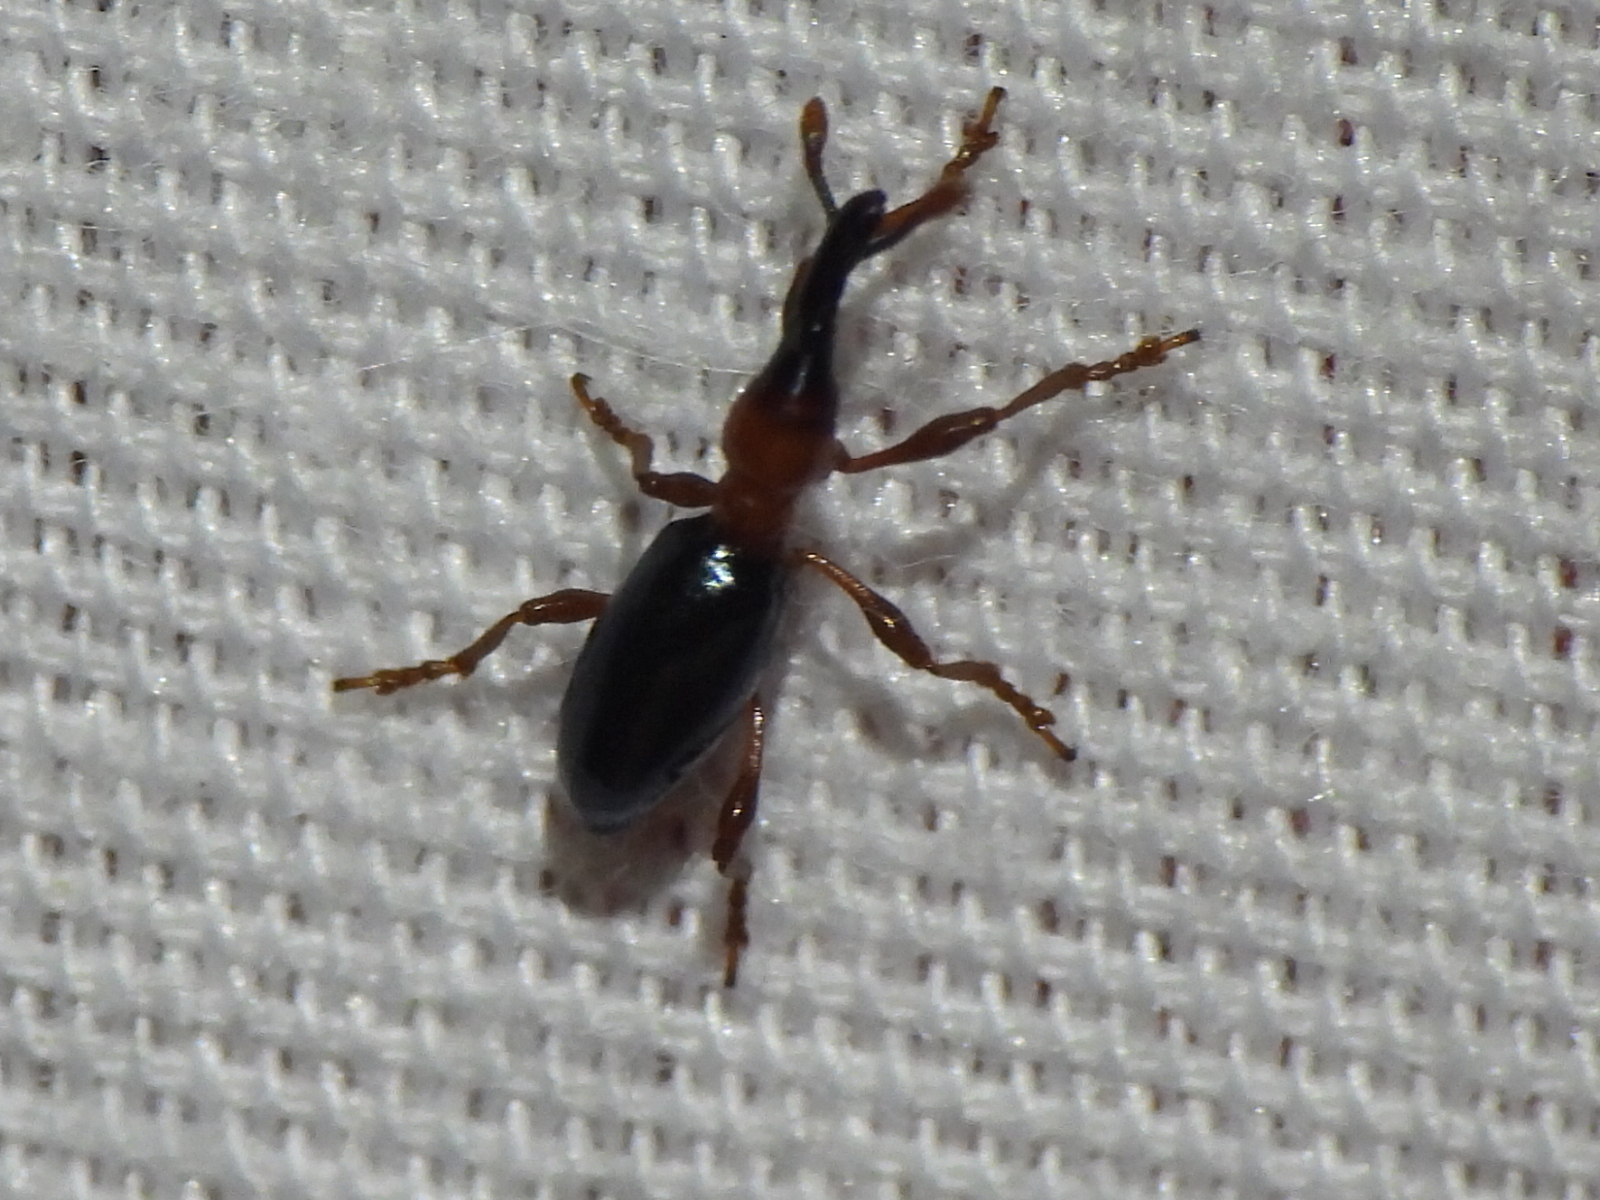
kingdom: Animalia
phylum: Arthropoda
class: Insecta
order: Coleoptera
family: Brentidae
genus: Cylas
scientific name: Cylas formicarius
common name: Sweetpotato weevil
